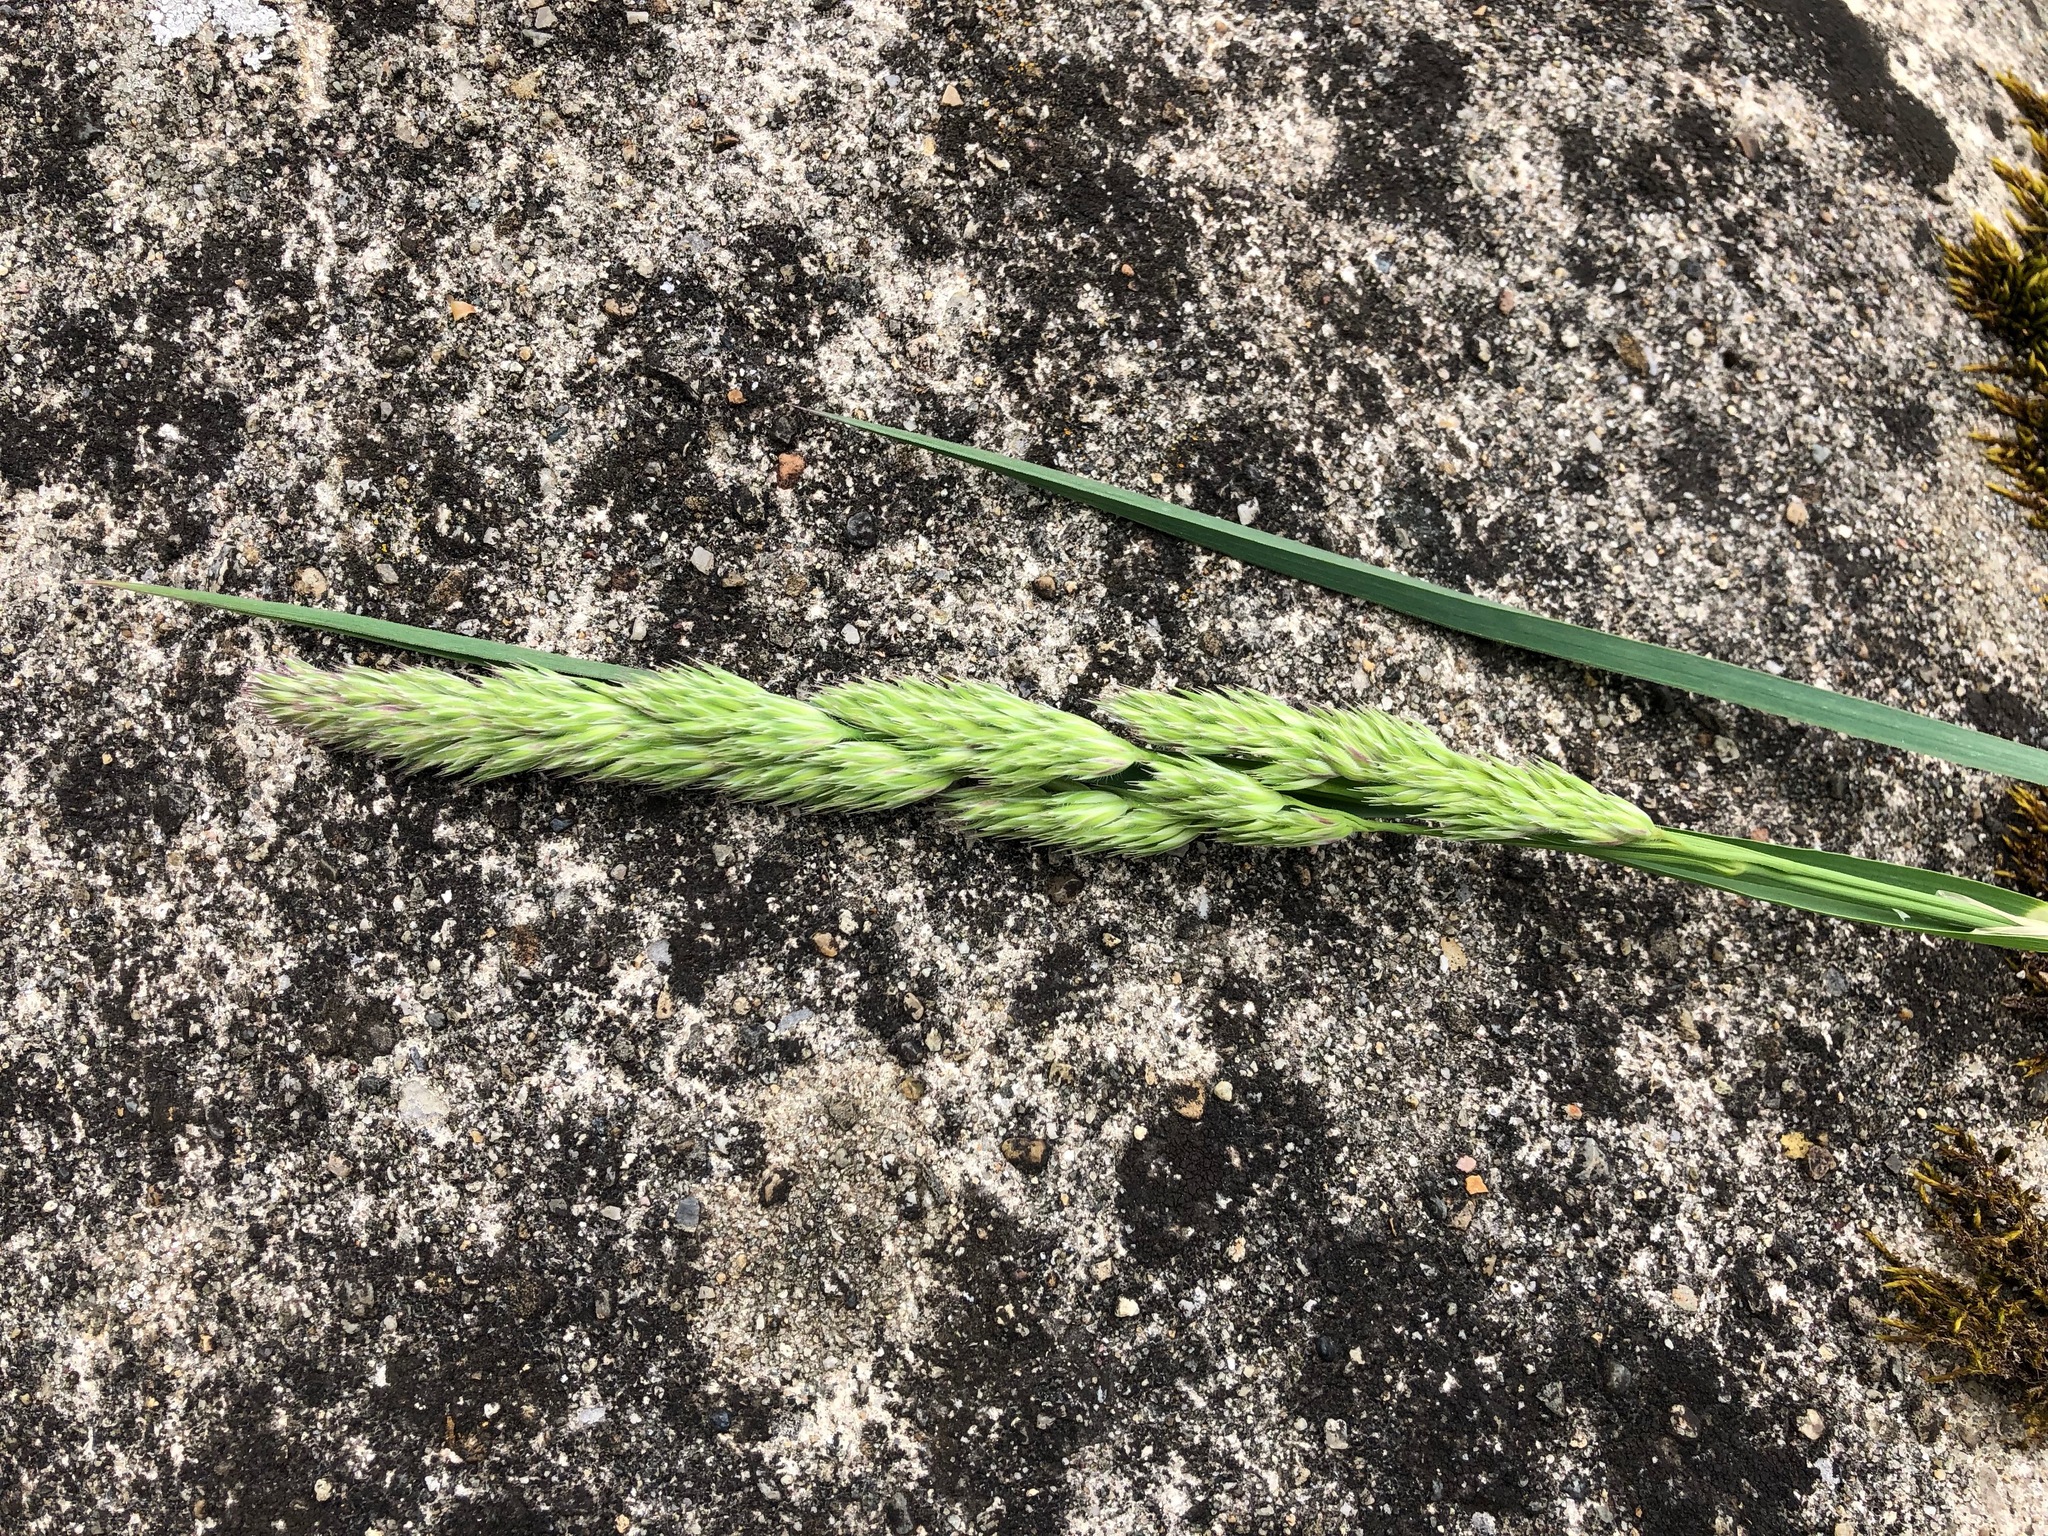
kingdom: Plantae
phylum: Tracheophyta
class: Liliopsida
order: Poales
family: Poaceae
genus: Dactylis
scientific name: Dactylis glomerata
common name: Orchardgrass
